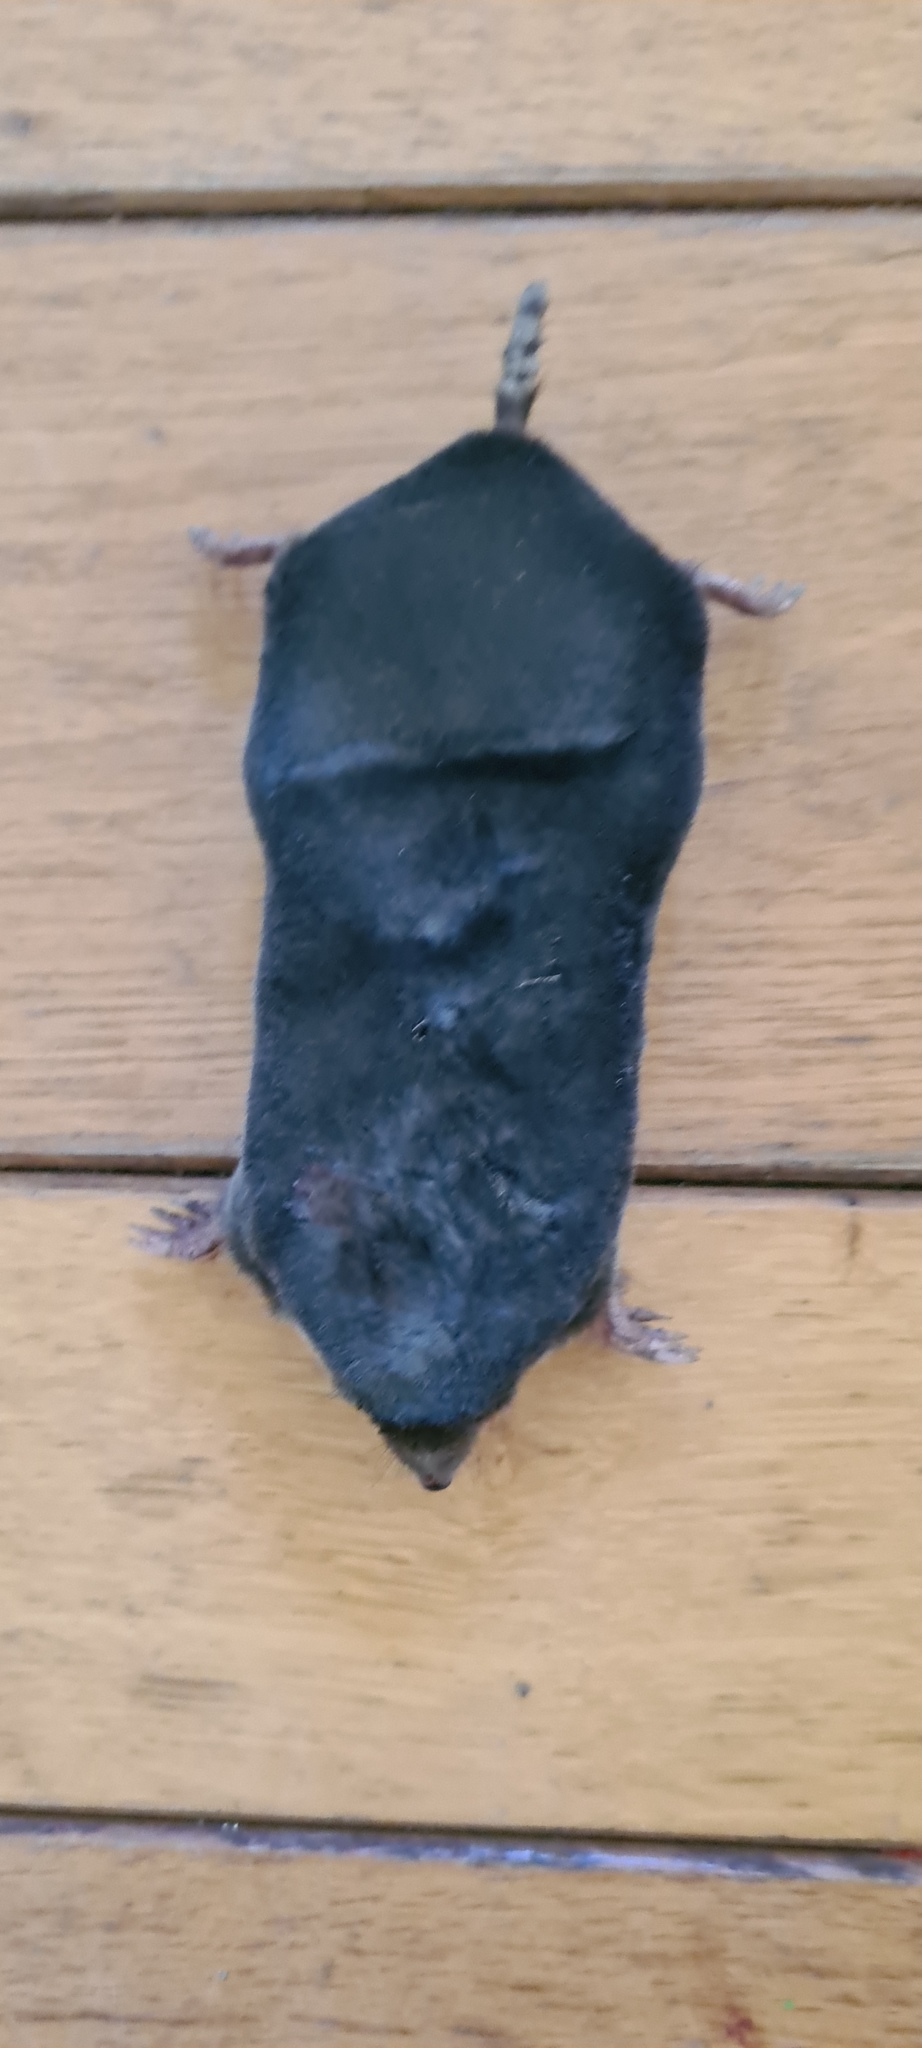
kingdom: Animalia
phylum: Chordata
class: Mammalia
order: Soricomorpha
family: Talpidae
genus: Talpa
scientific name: Talpa europaea
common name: European mole
